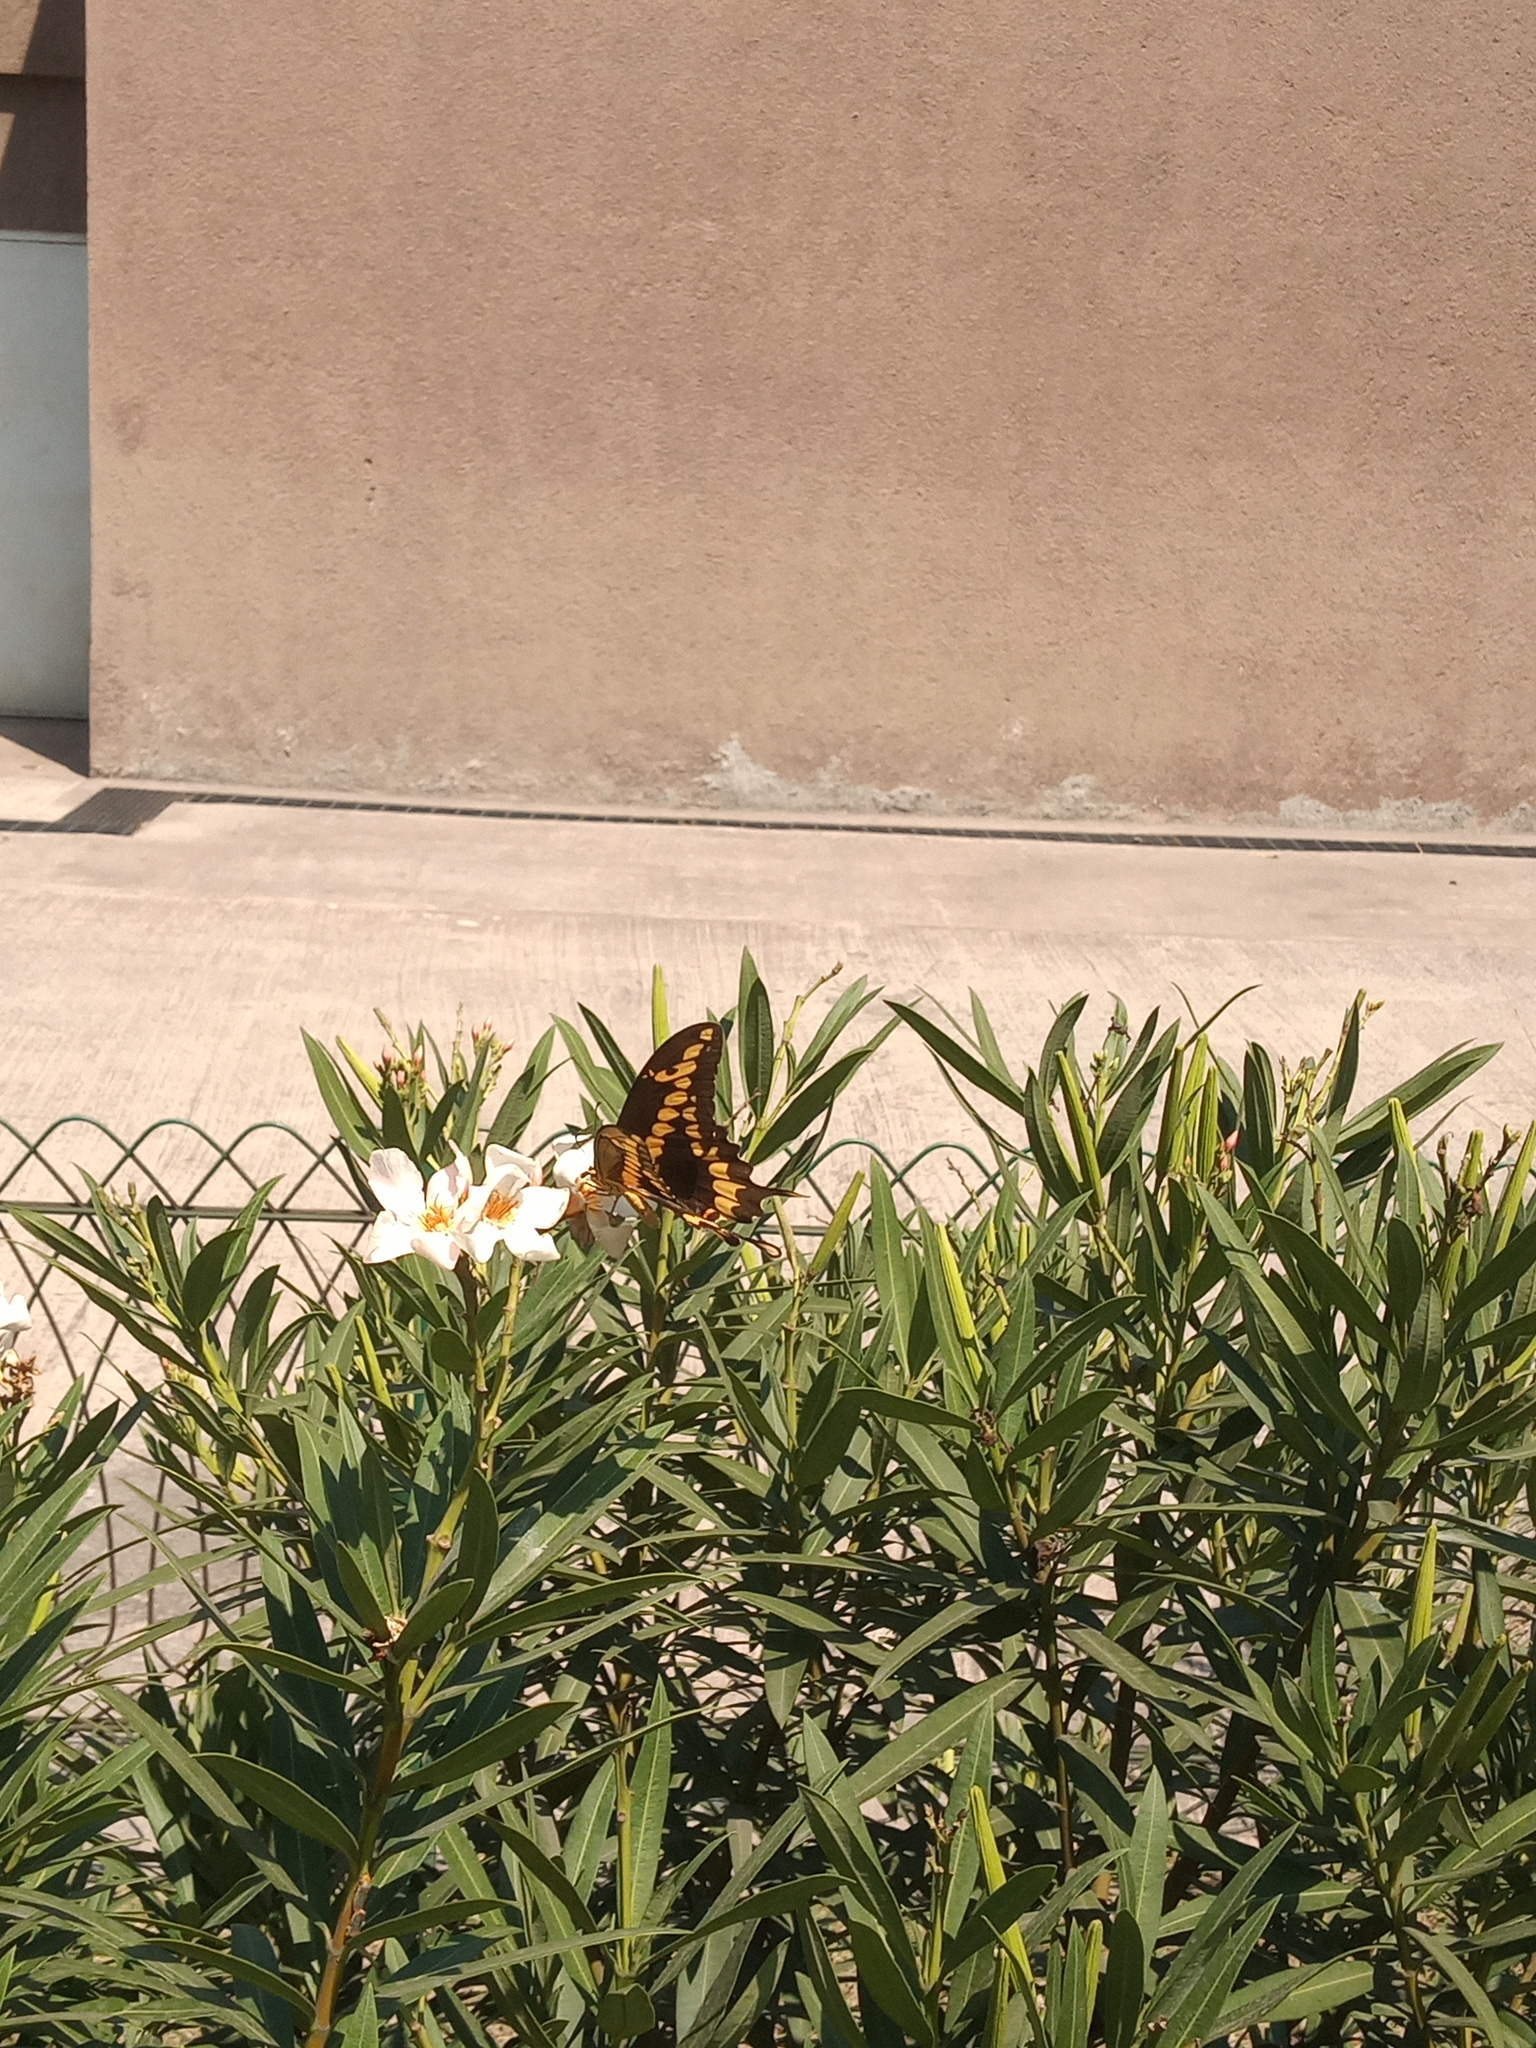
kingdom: Animalia
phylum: Arthropoda
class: Insecta
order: Lepidoptera
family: Papilionidae
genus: Papilio
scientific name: Papilio rumiko
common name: Western giant swallowtail
